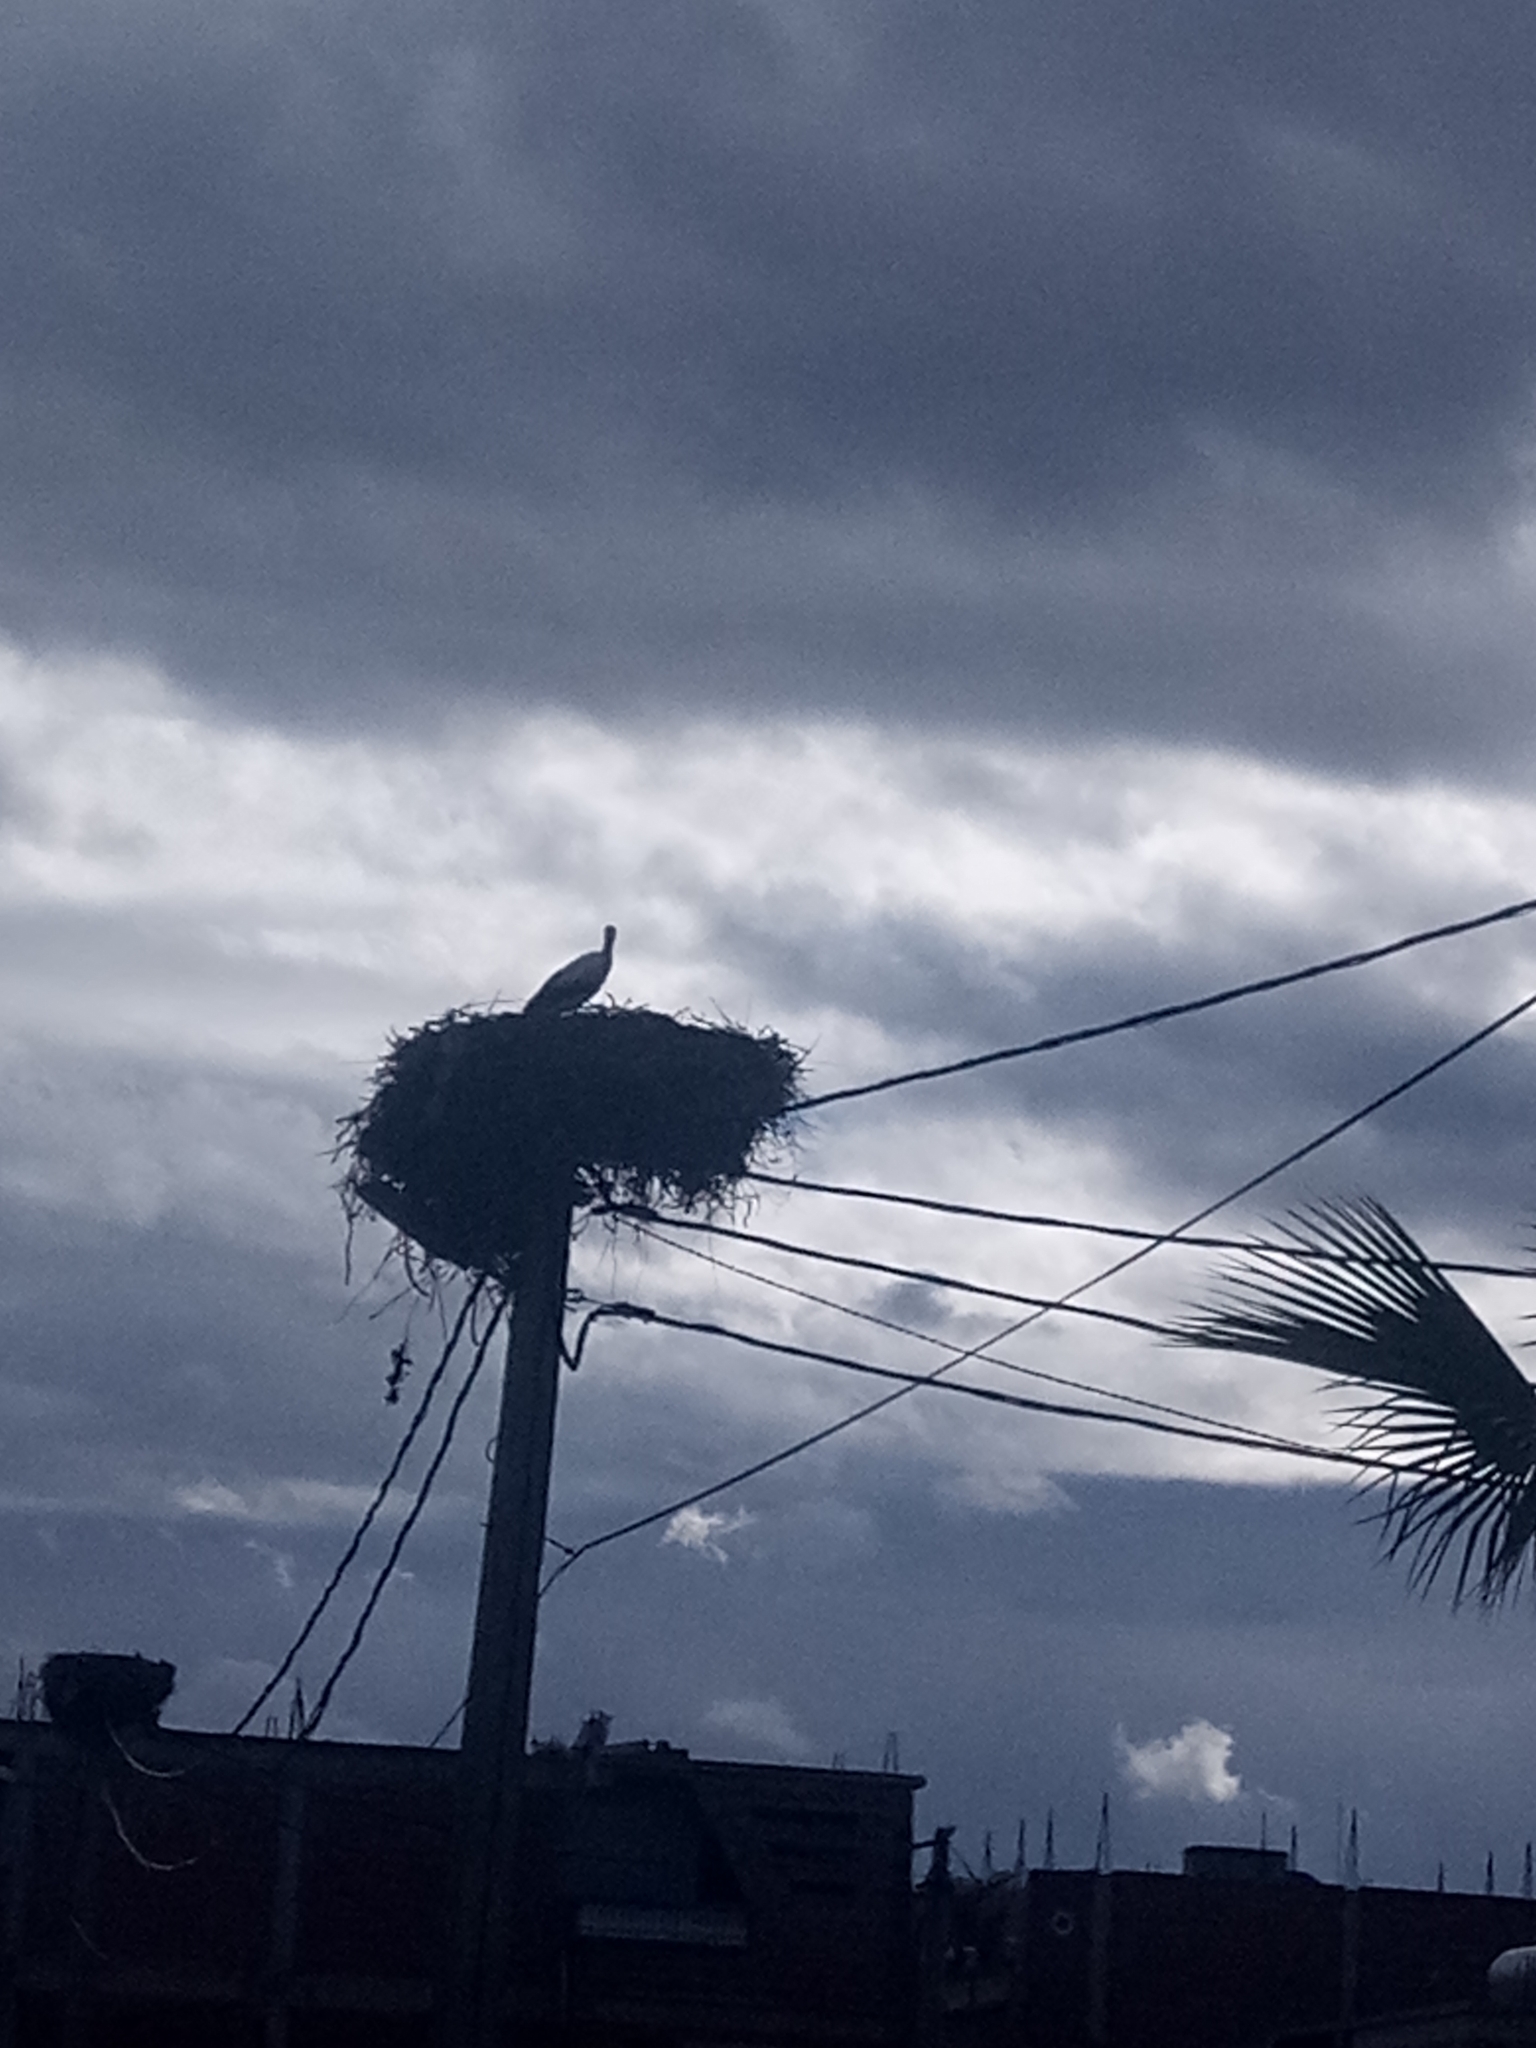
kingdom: Animalia
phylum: Chordata
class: Aves
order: Ciconiiformes
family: Ciconiidae
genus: Ciconia
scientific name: Ciconia ciconia
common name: White stork
